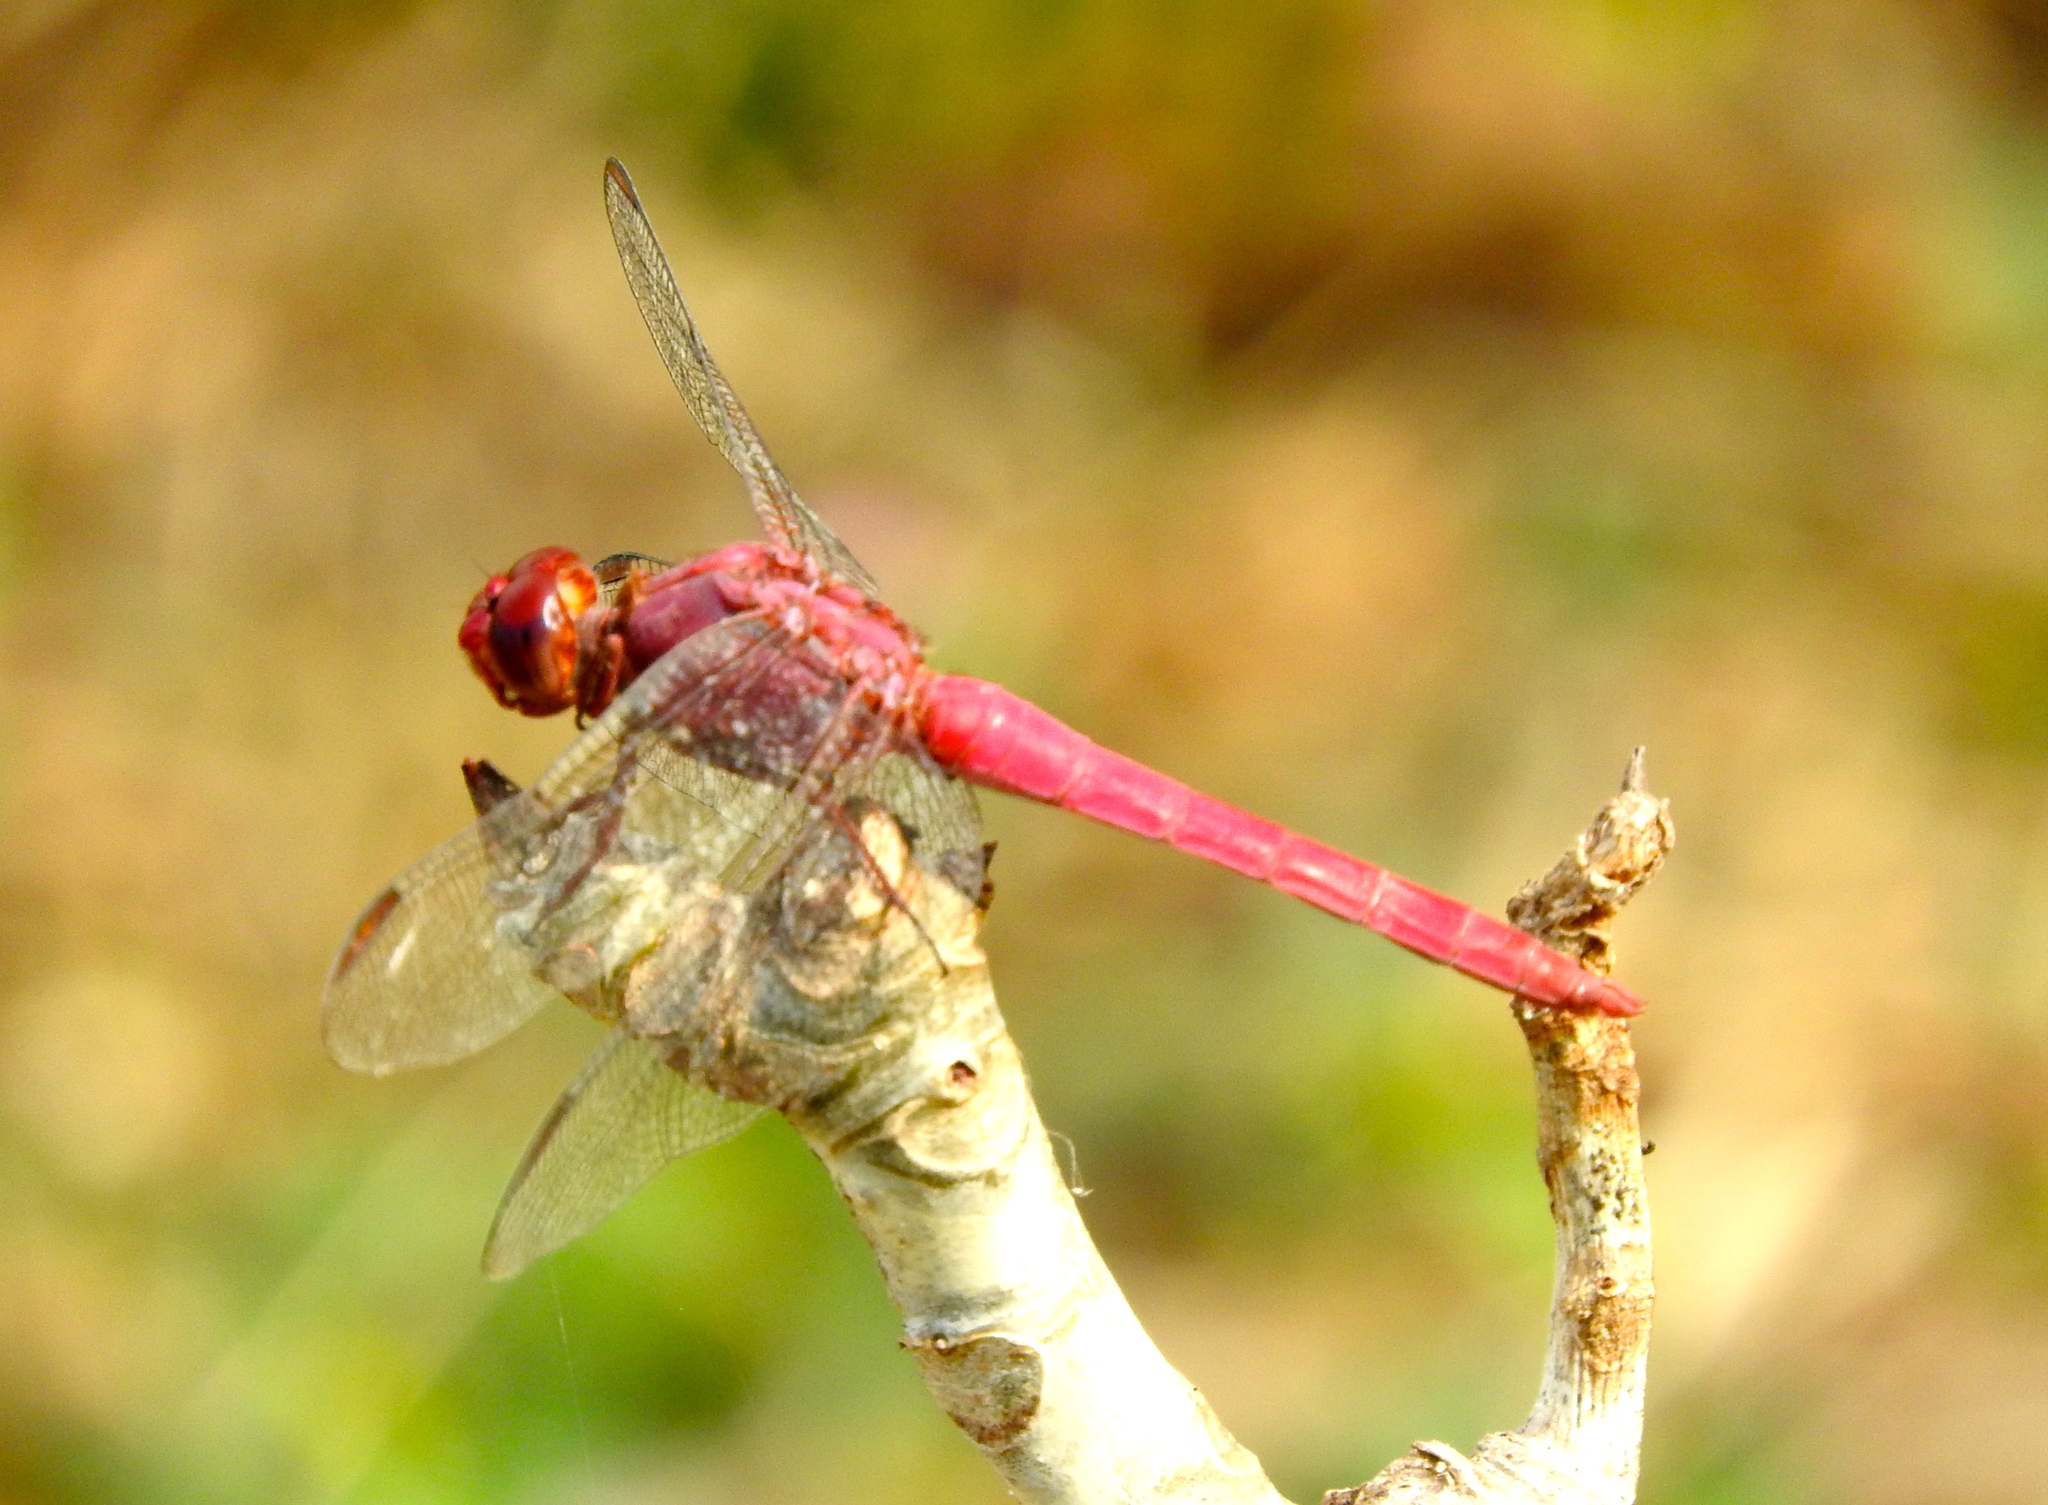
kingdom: Animalia
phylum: Arthropoda
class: Insecta
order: Odonata
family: Libellulidae
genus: Orthemis
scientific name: Orthemis discolor
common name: Carmine skimmer
